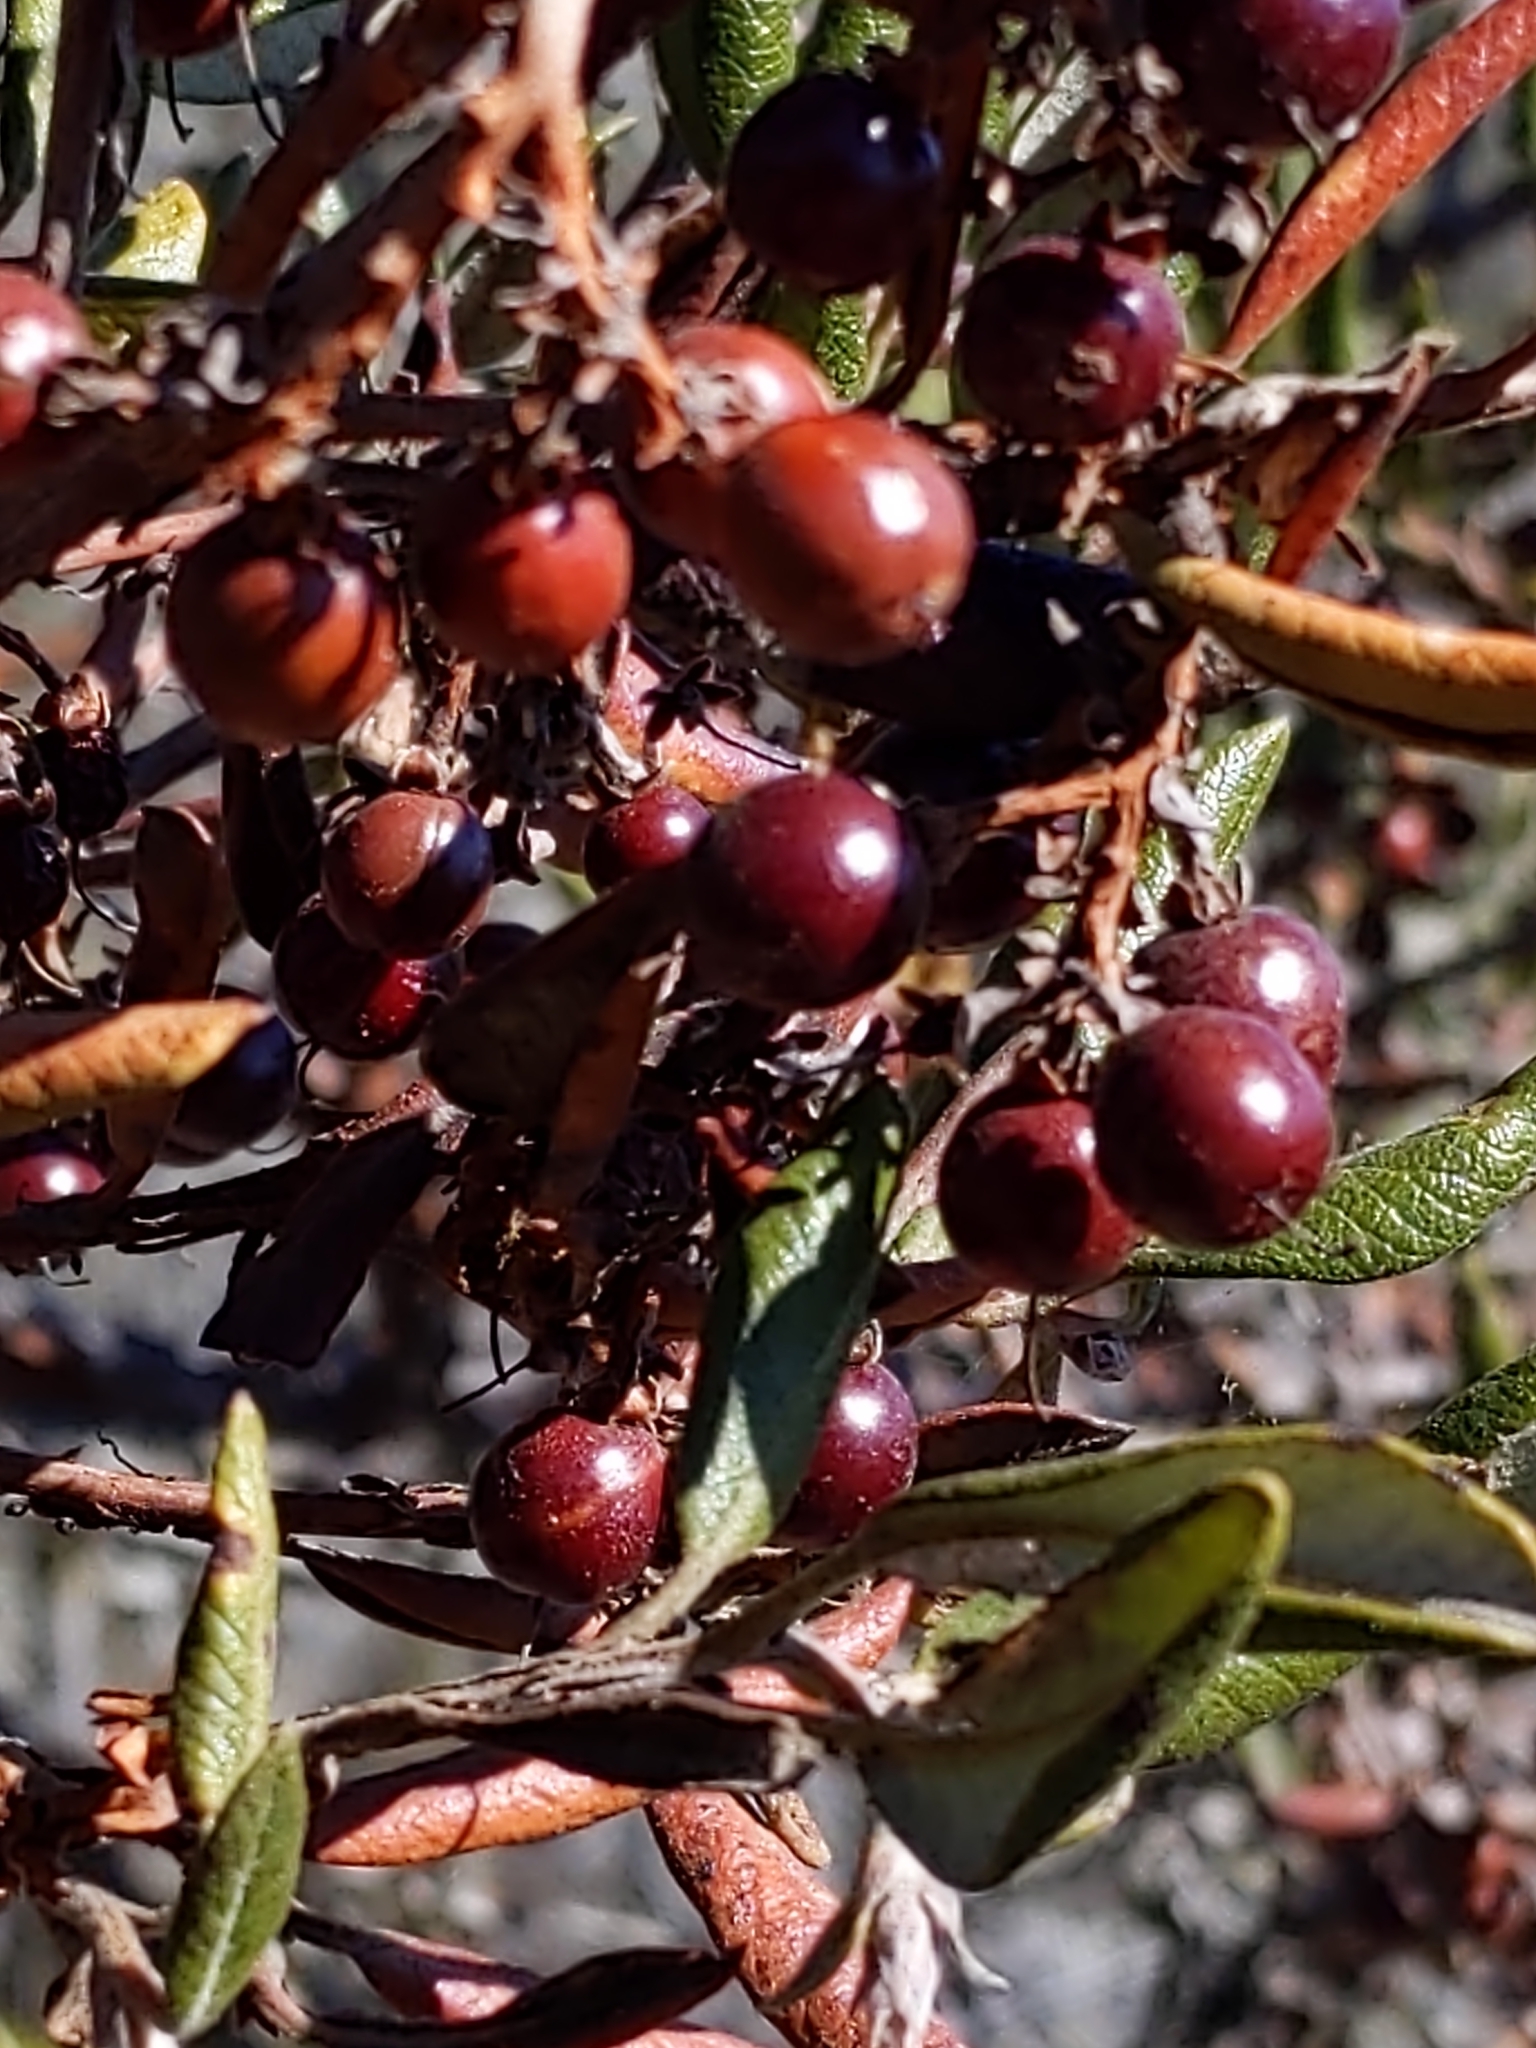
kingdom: Plantae
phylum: Tracheophyta
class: Magnoliopsida
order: Ericales
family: Ericaceae
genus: Arctostaphylos
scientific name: Arctostaphylos bicolor
